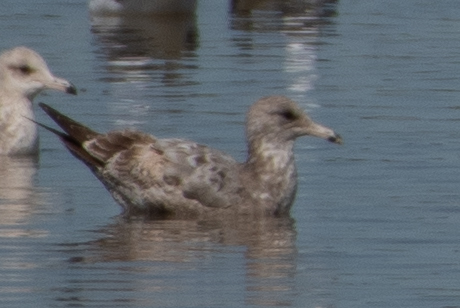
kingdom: Animalia
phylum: Chordata
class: Aves
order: Charadriiformes
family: Laridae
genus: Larus
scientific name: Larus californicus
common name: California gull
